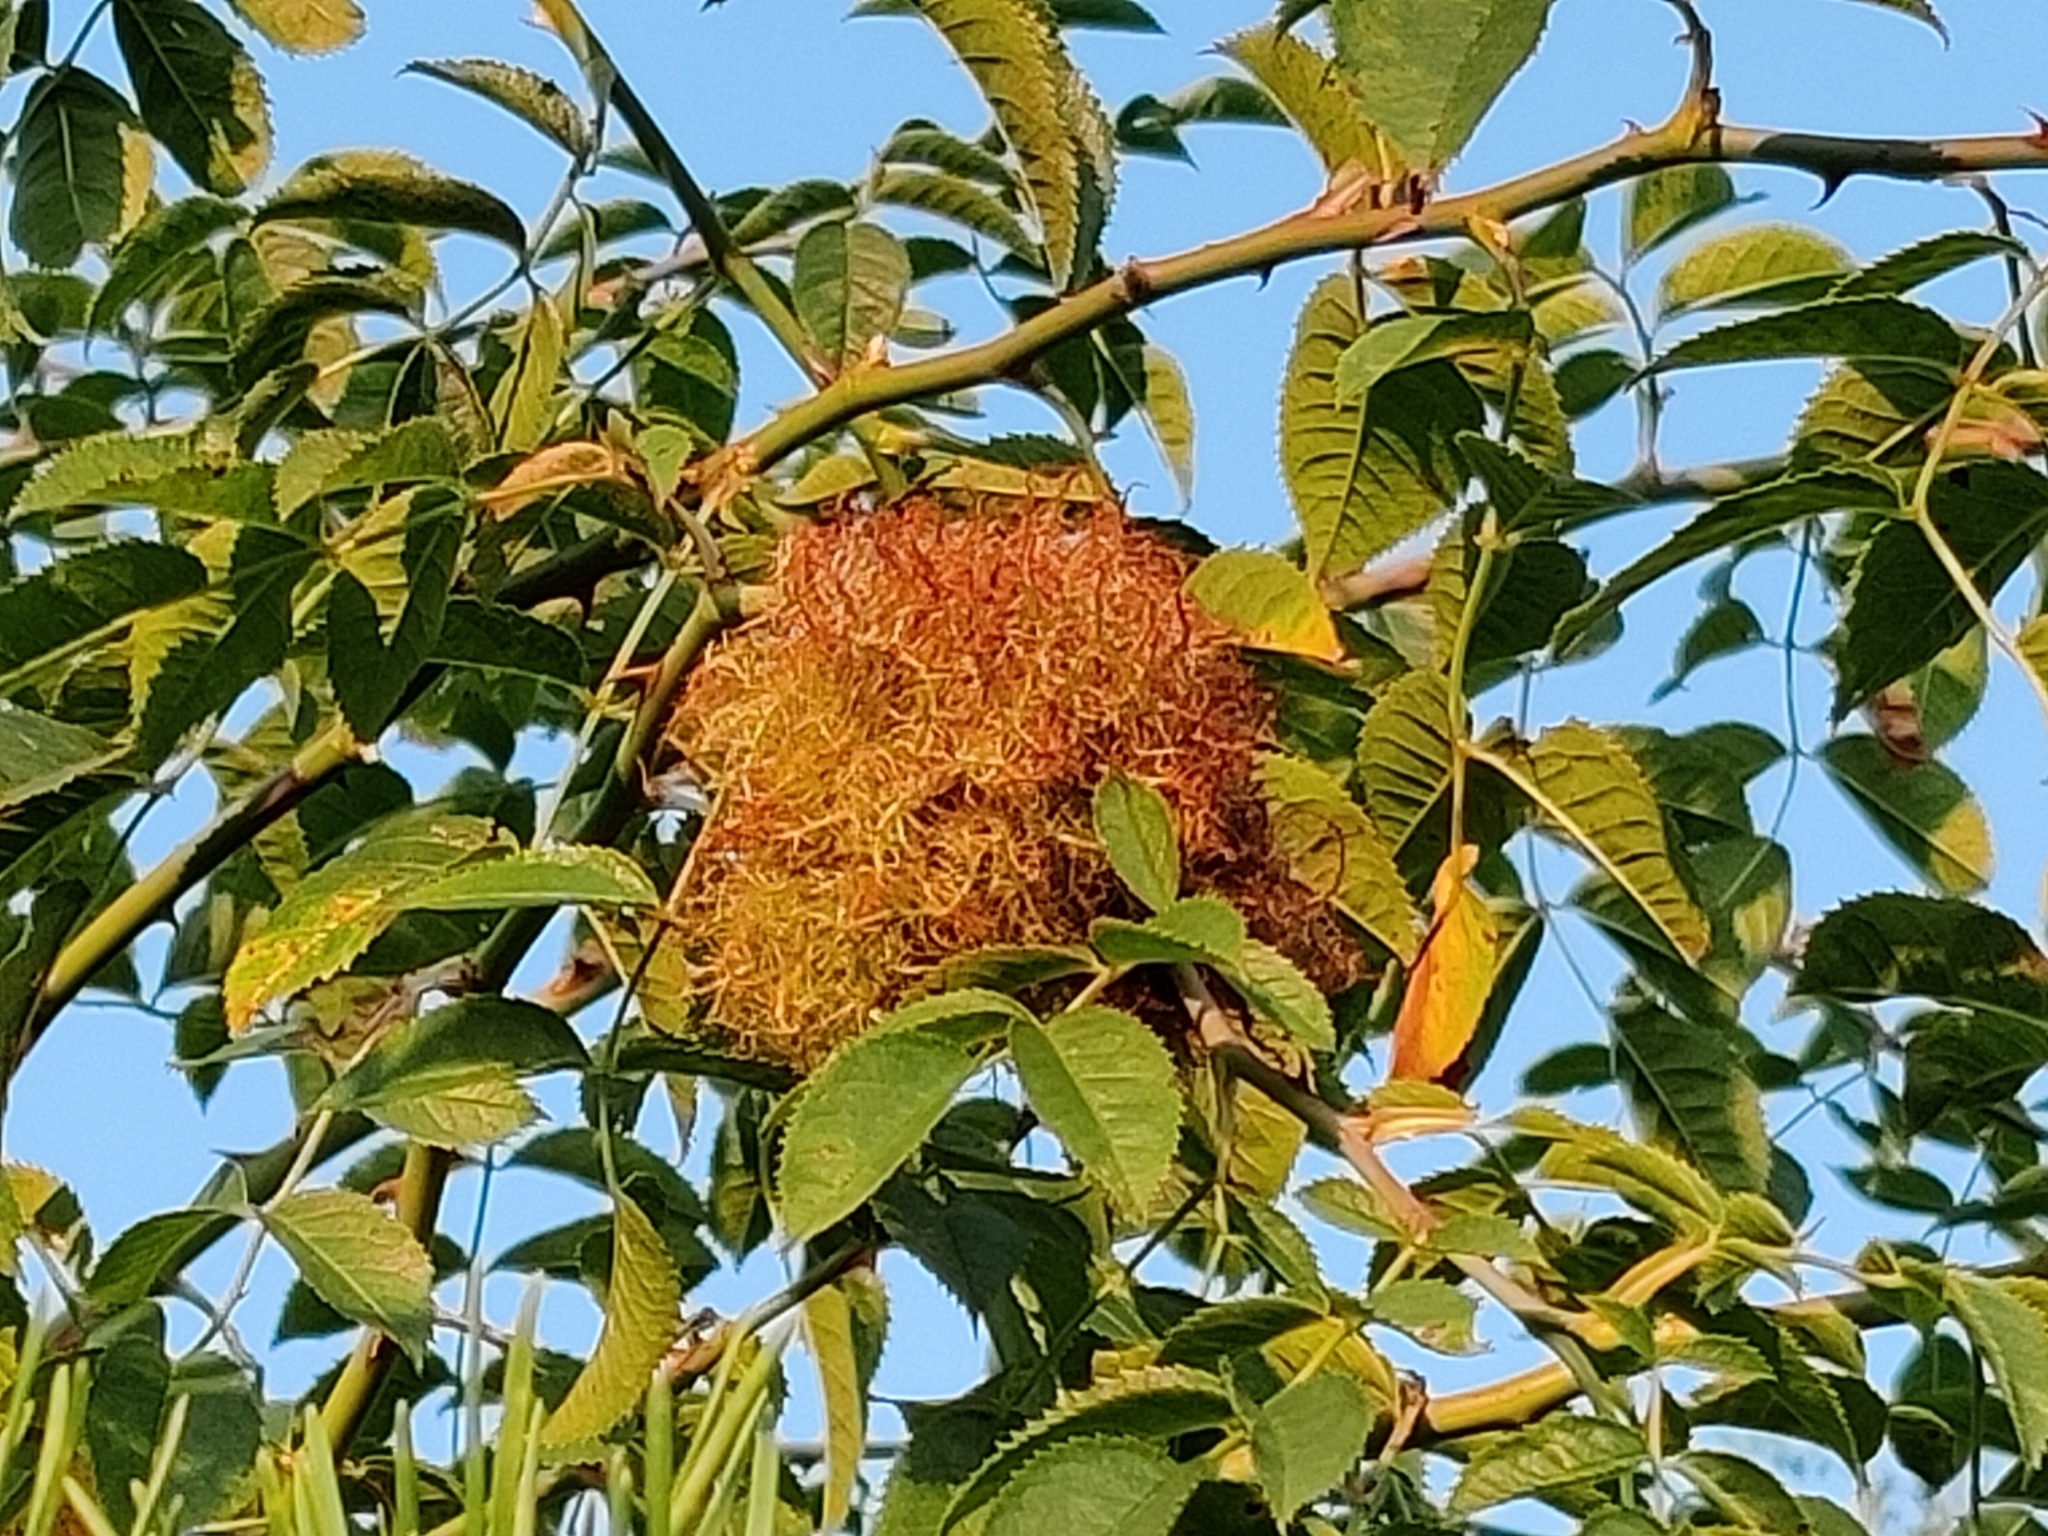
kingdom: Animalia
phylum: Arthropoda
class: Insecta
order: Hymenoptera
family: Cynipidae
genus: Diplolepis
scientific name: Diplolepis rosae
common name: Bedeguar gall
